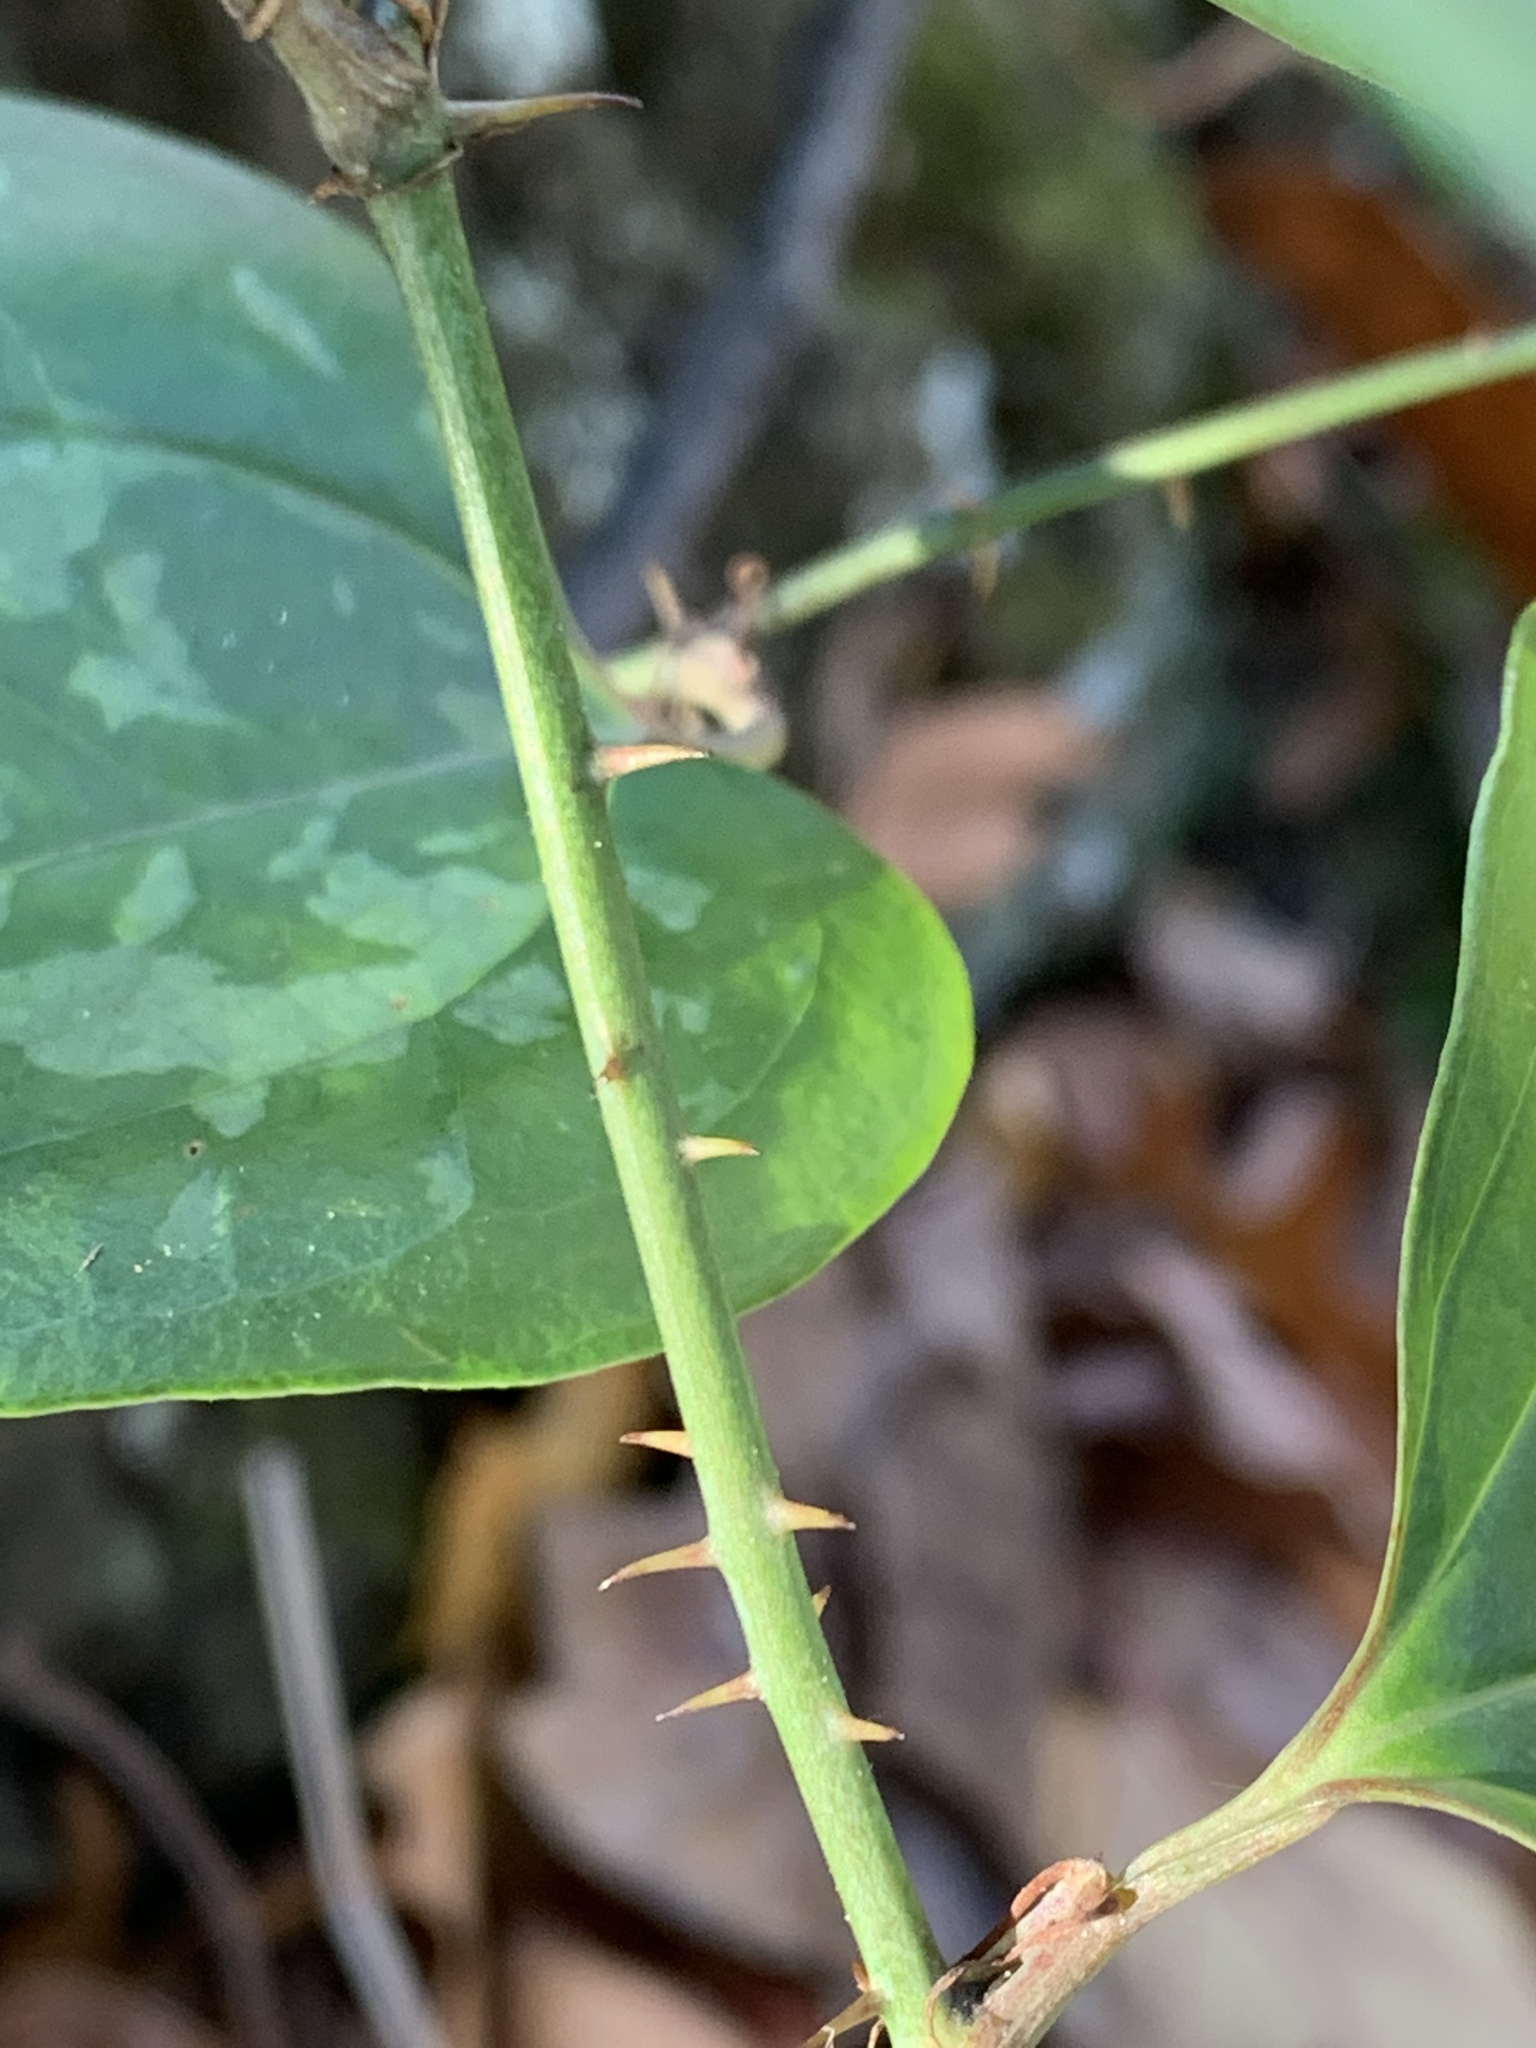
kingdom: Plantae
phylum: Tracheophyta
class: Liliopsida
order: Liliales
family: Smilacaceae
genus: Smilax
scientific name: Smilax glauca
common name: Cat greenbrier
